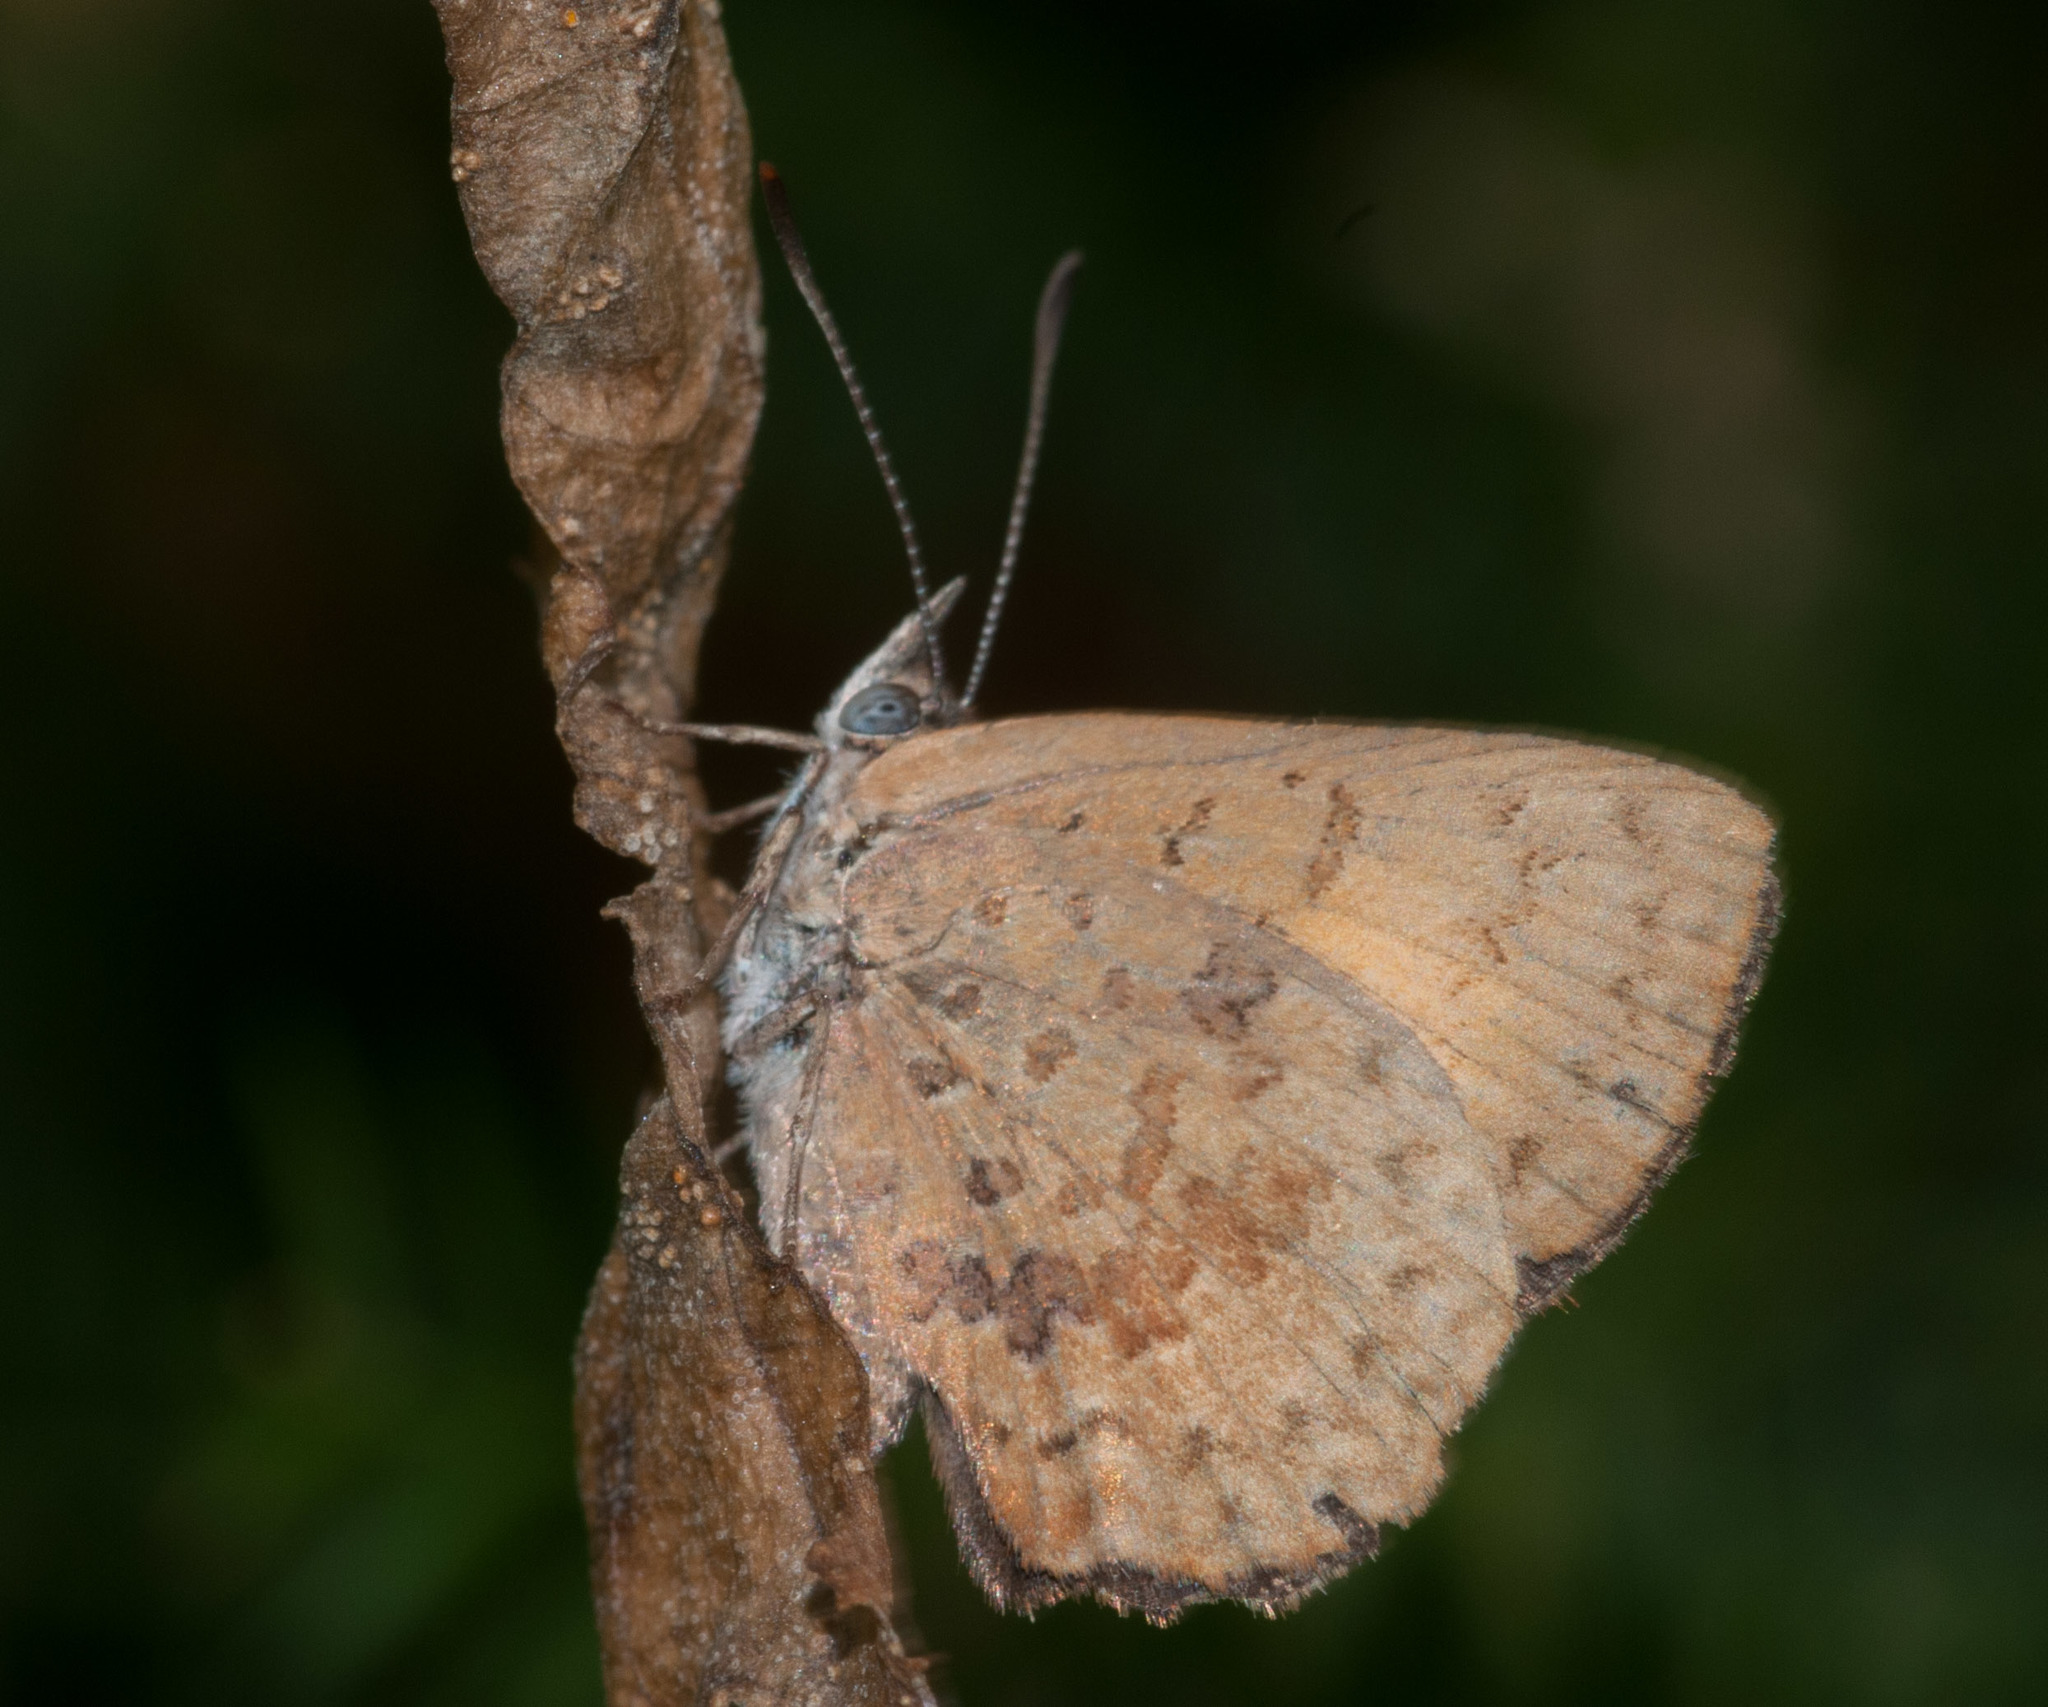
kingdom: Animalia
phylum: Arthropoda
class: Insecta
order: Lepidoptera
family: Lycaenidae
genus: Paralucia
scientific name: Paralucia aurifer
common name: Bright copper
